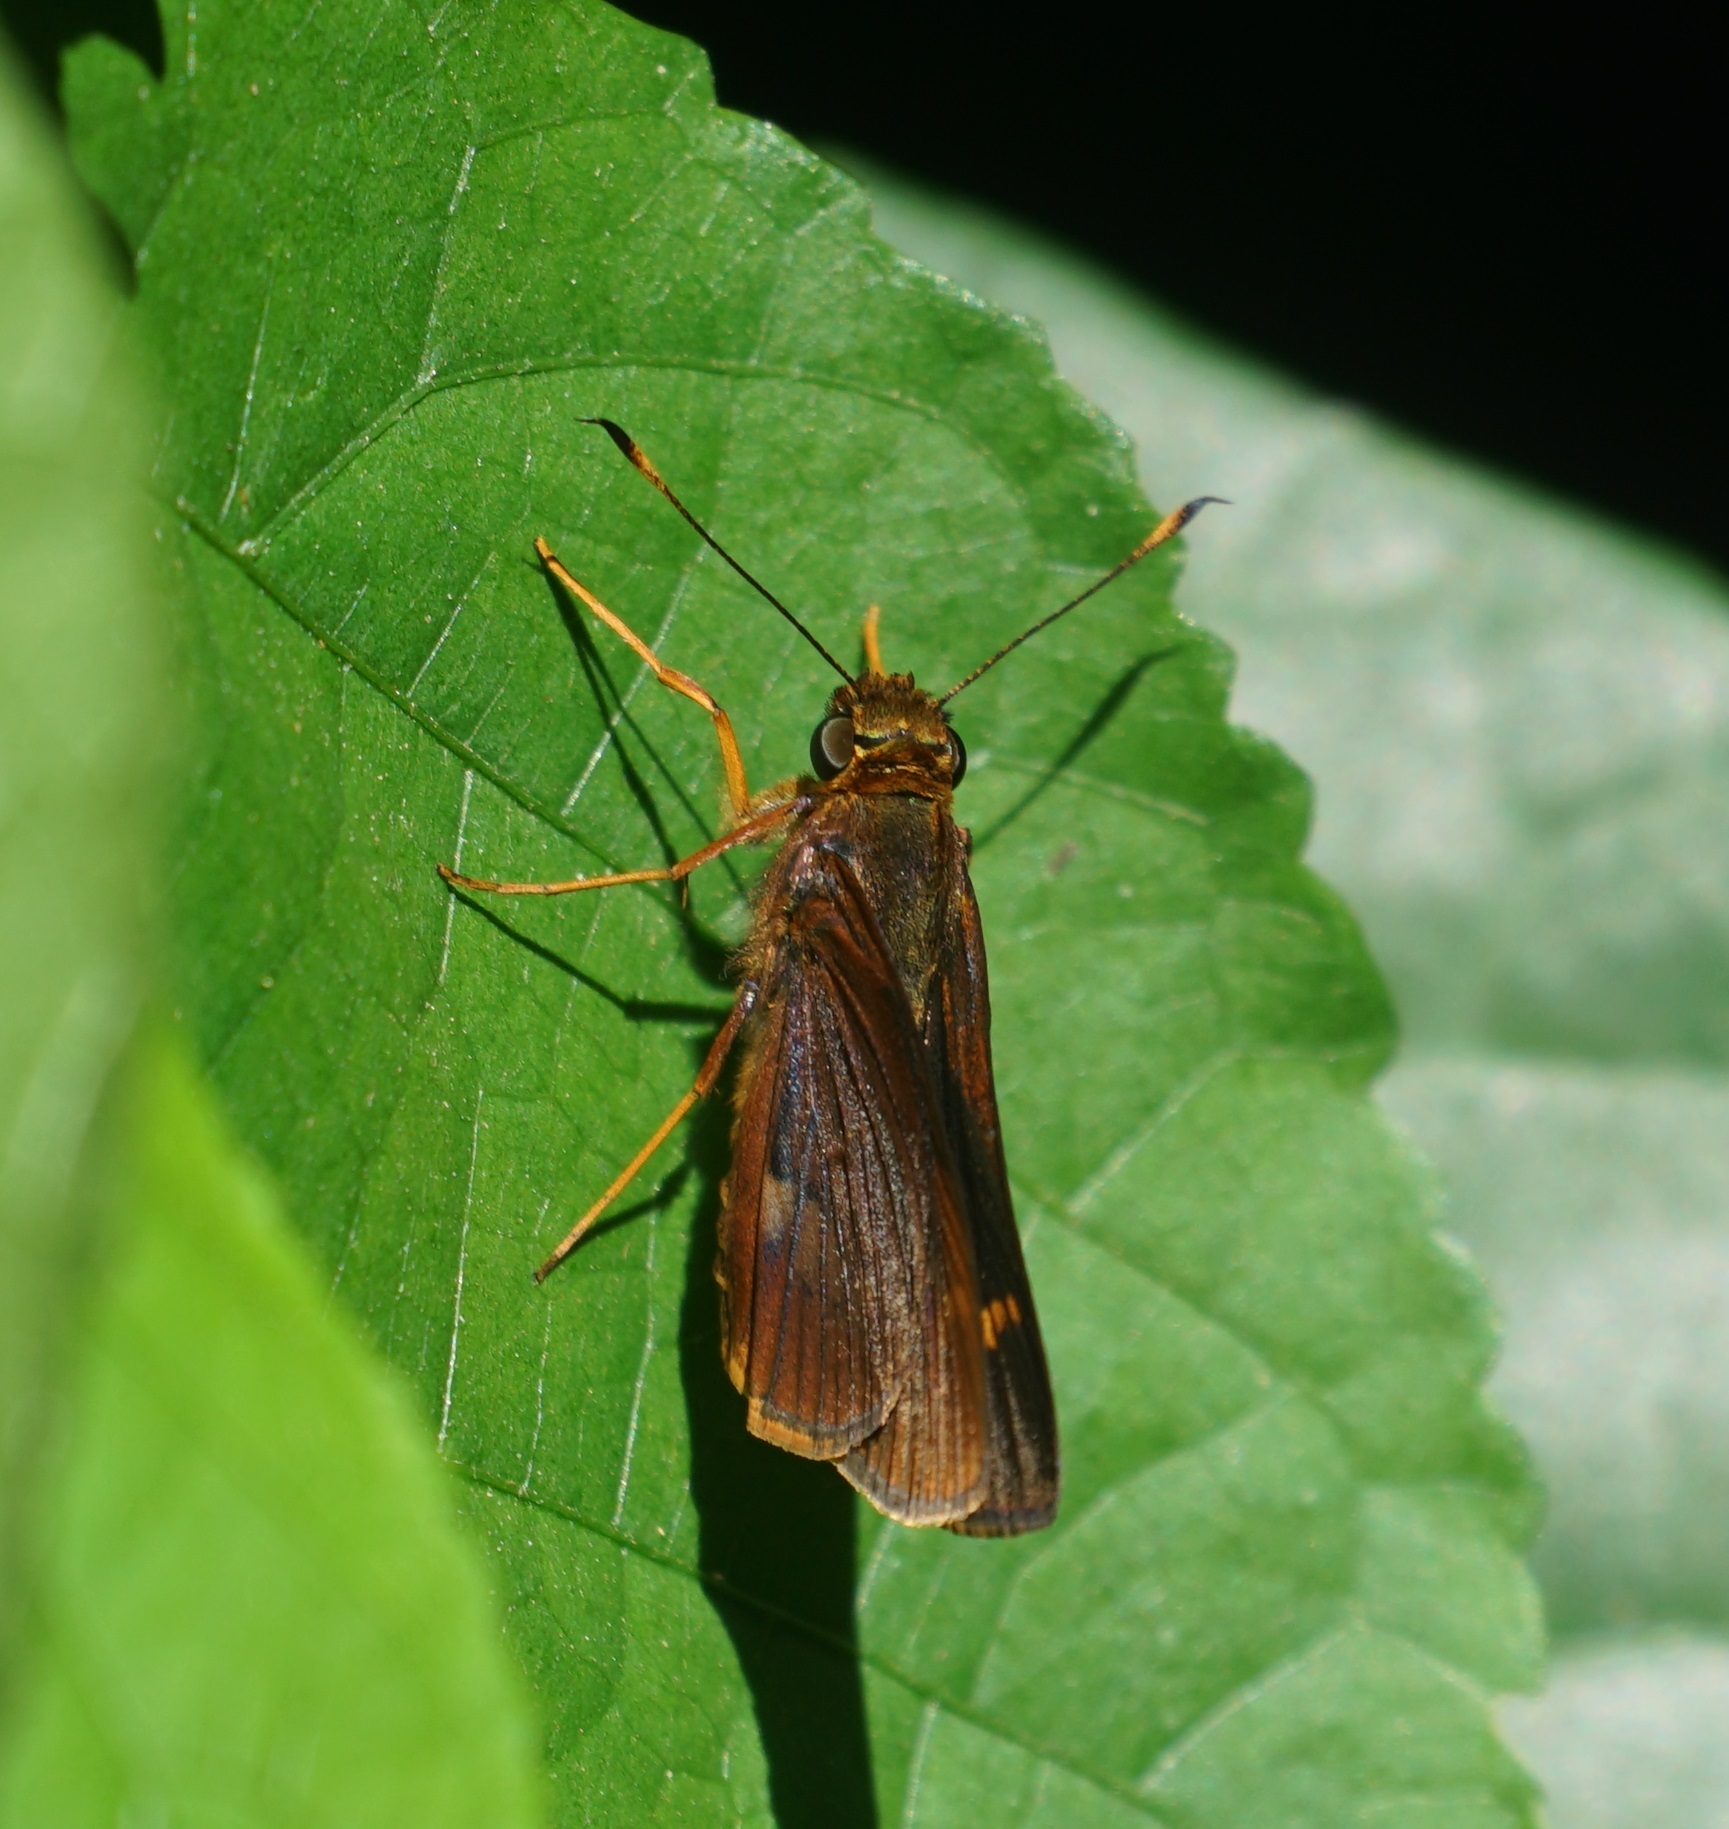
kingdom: Animalia
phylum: Arthropoda
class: Insecta
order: Lepidoptera
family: Hesperiidae
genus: Sabera
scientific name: Sabera dobboe
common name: Yellow-streaked swift
